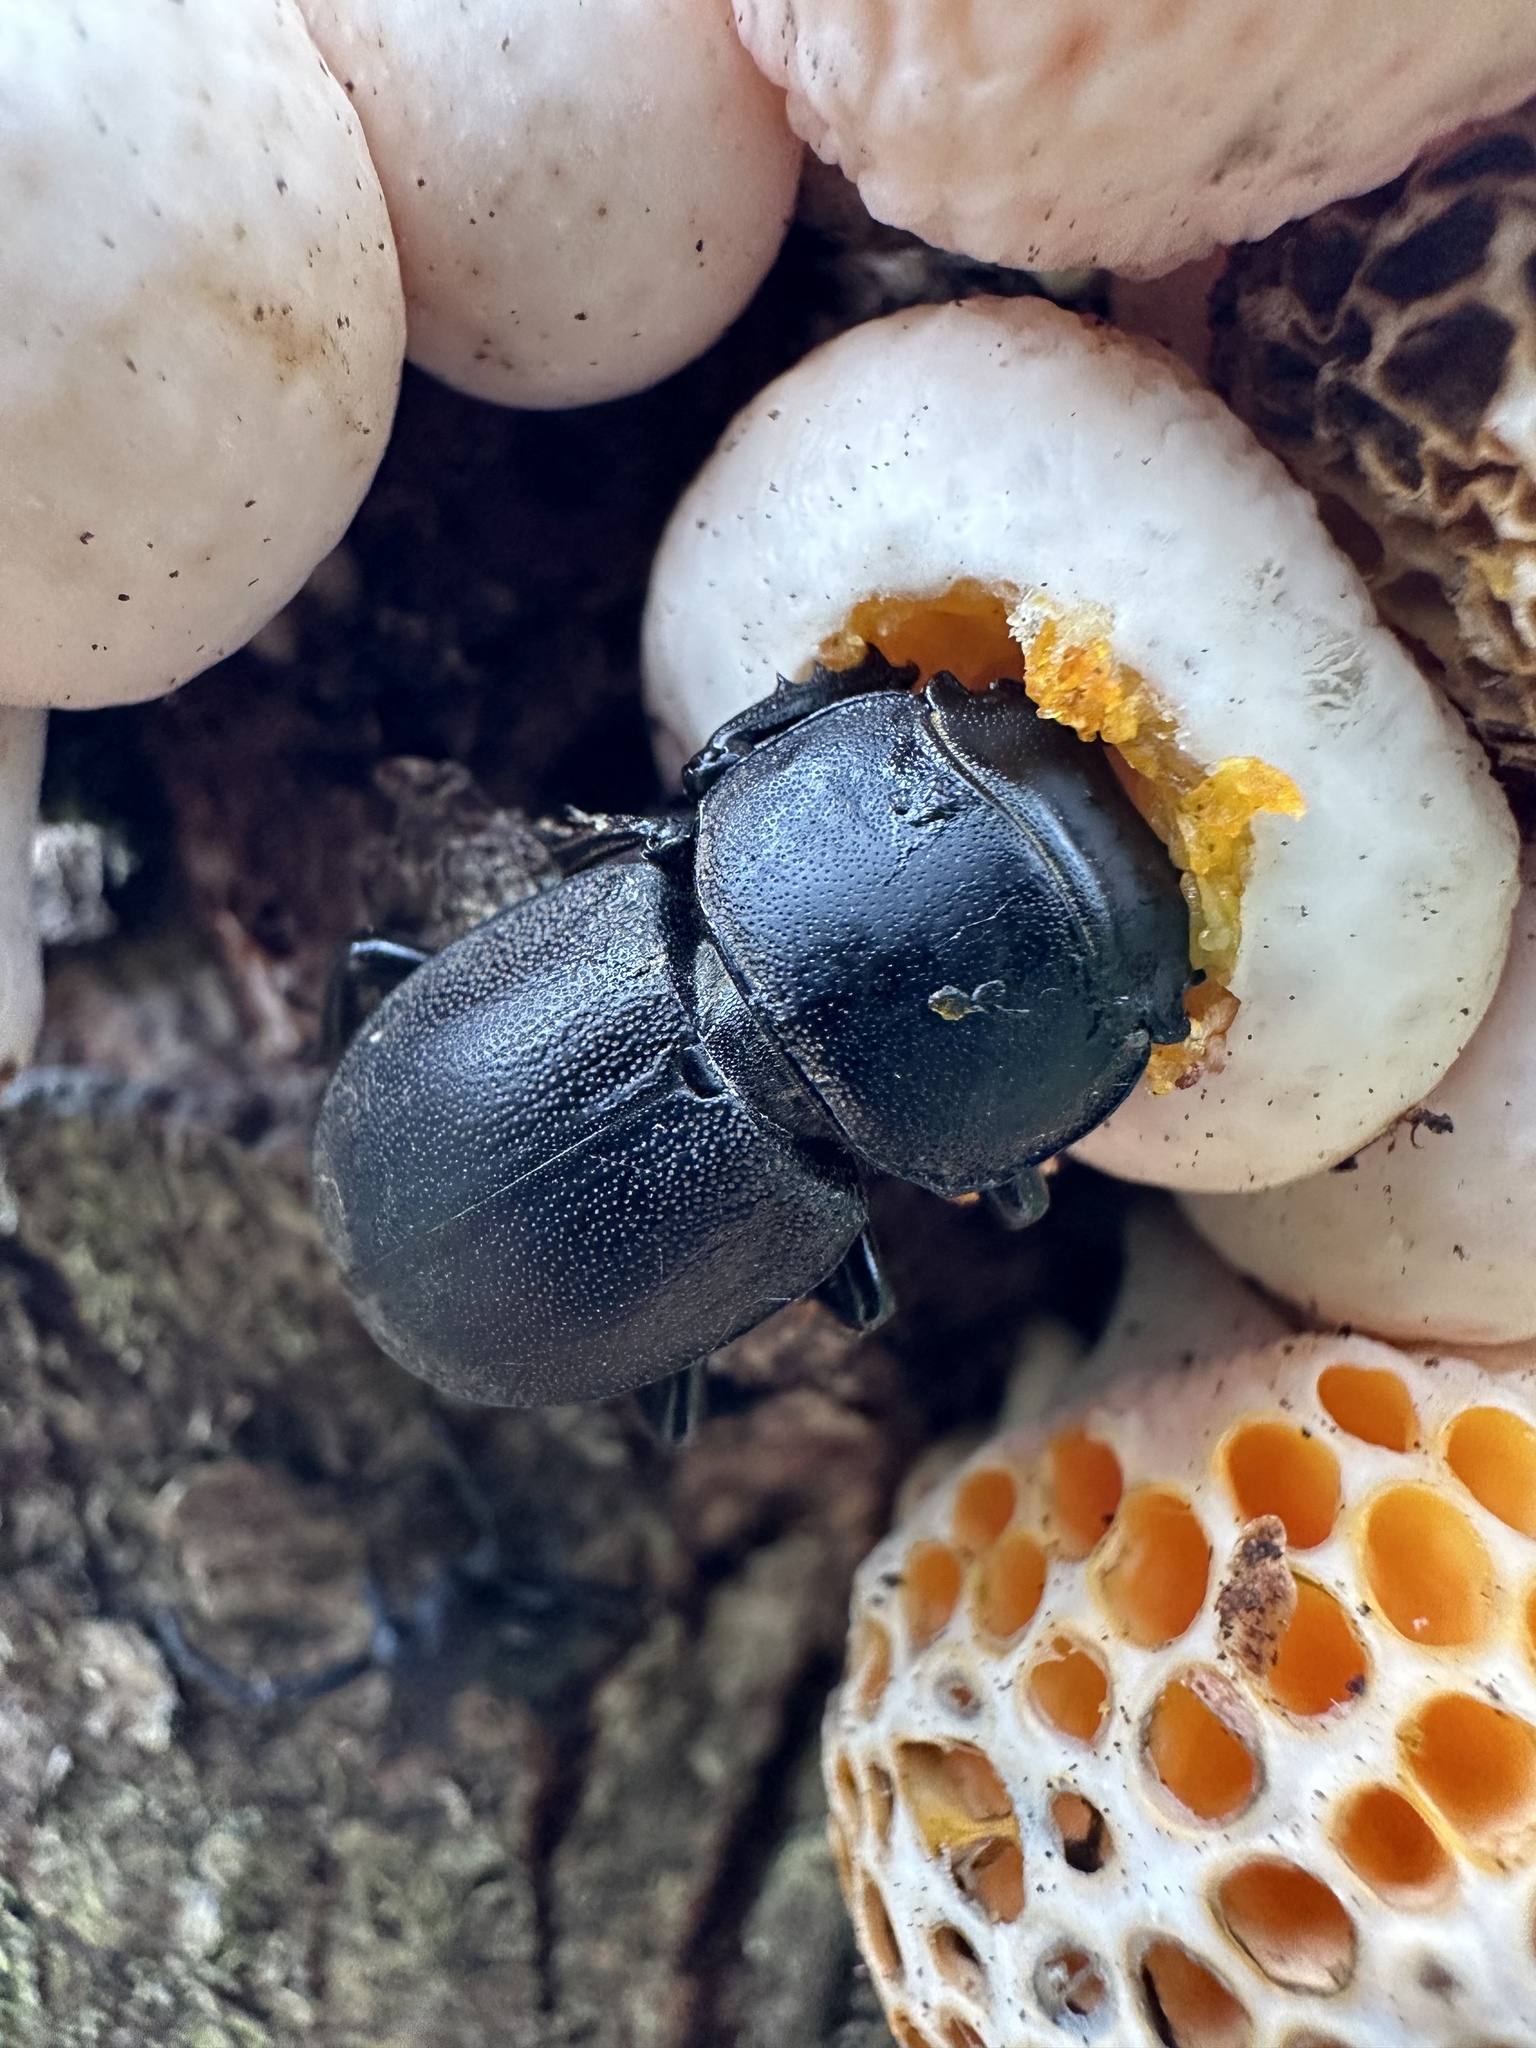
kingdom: Animalia
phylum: Arthropoda
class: Insecta
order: Coleoptera
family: Lucanidae
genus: Apterodorcus
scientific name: Apterodorcus bacchus
